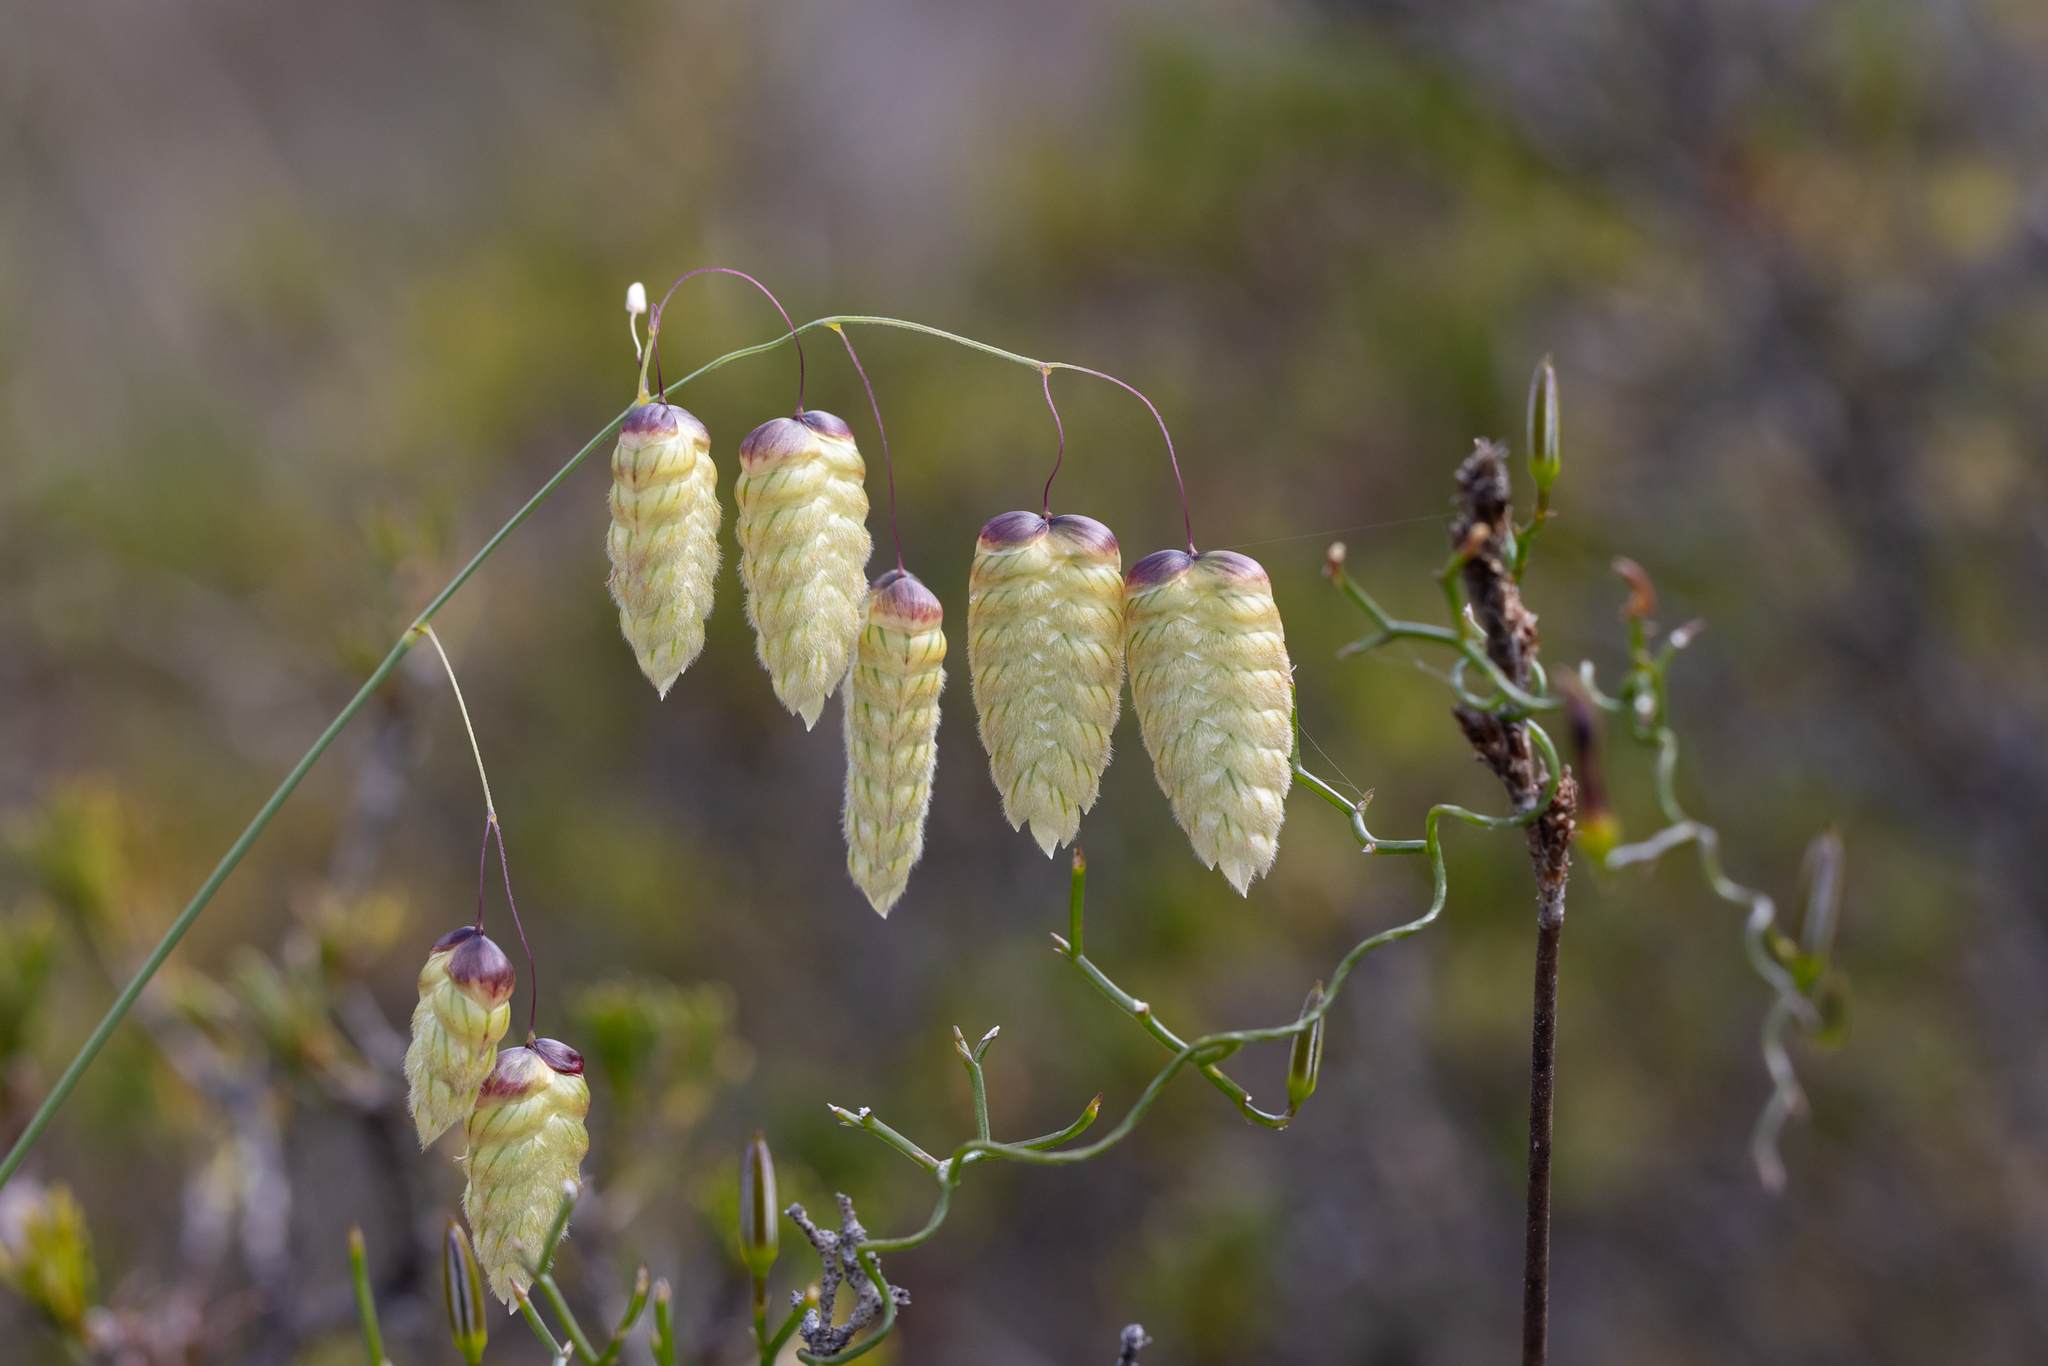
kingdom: Plantae
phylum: Tracheophyta
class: Liliopsida
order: Poales
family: Poaceae
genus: Briza
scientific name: Briza maxima
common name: Big quakinggrass
